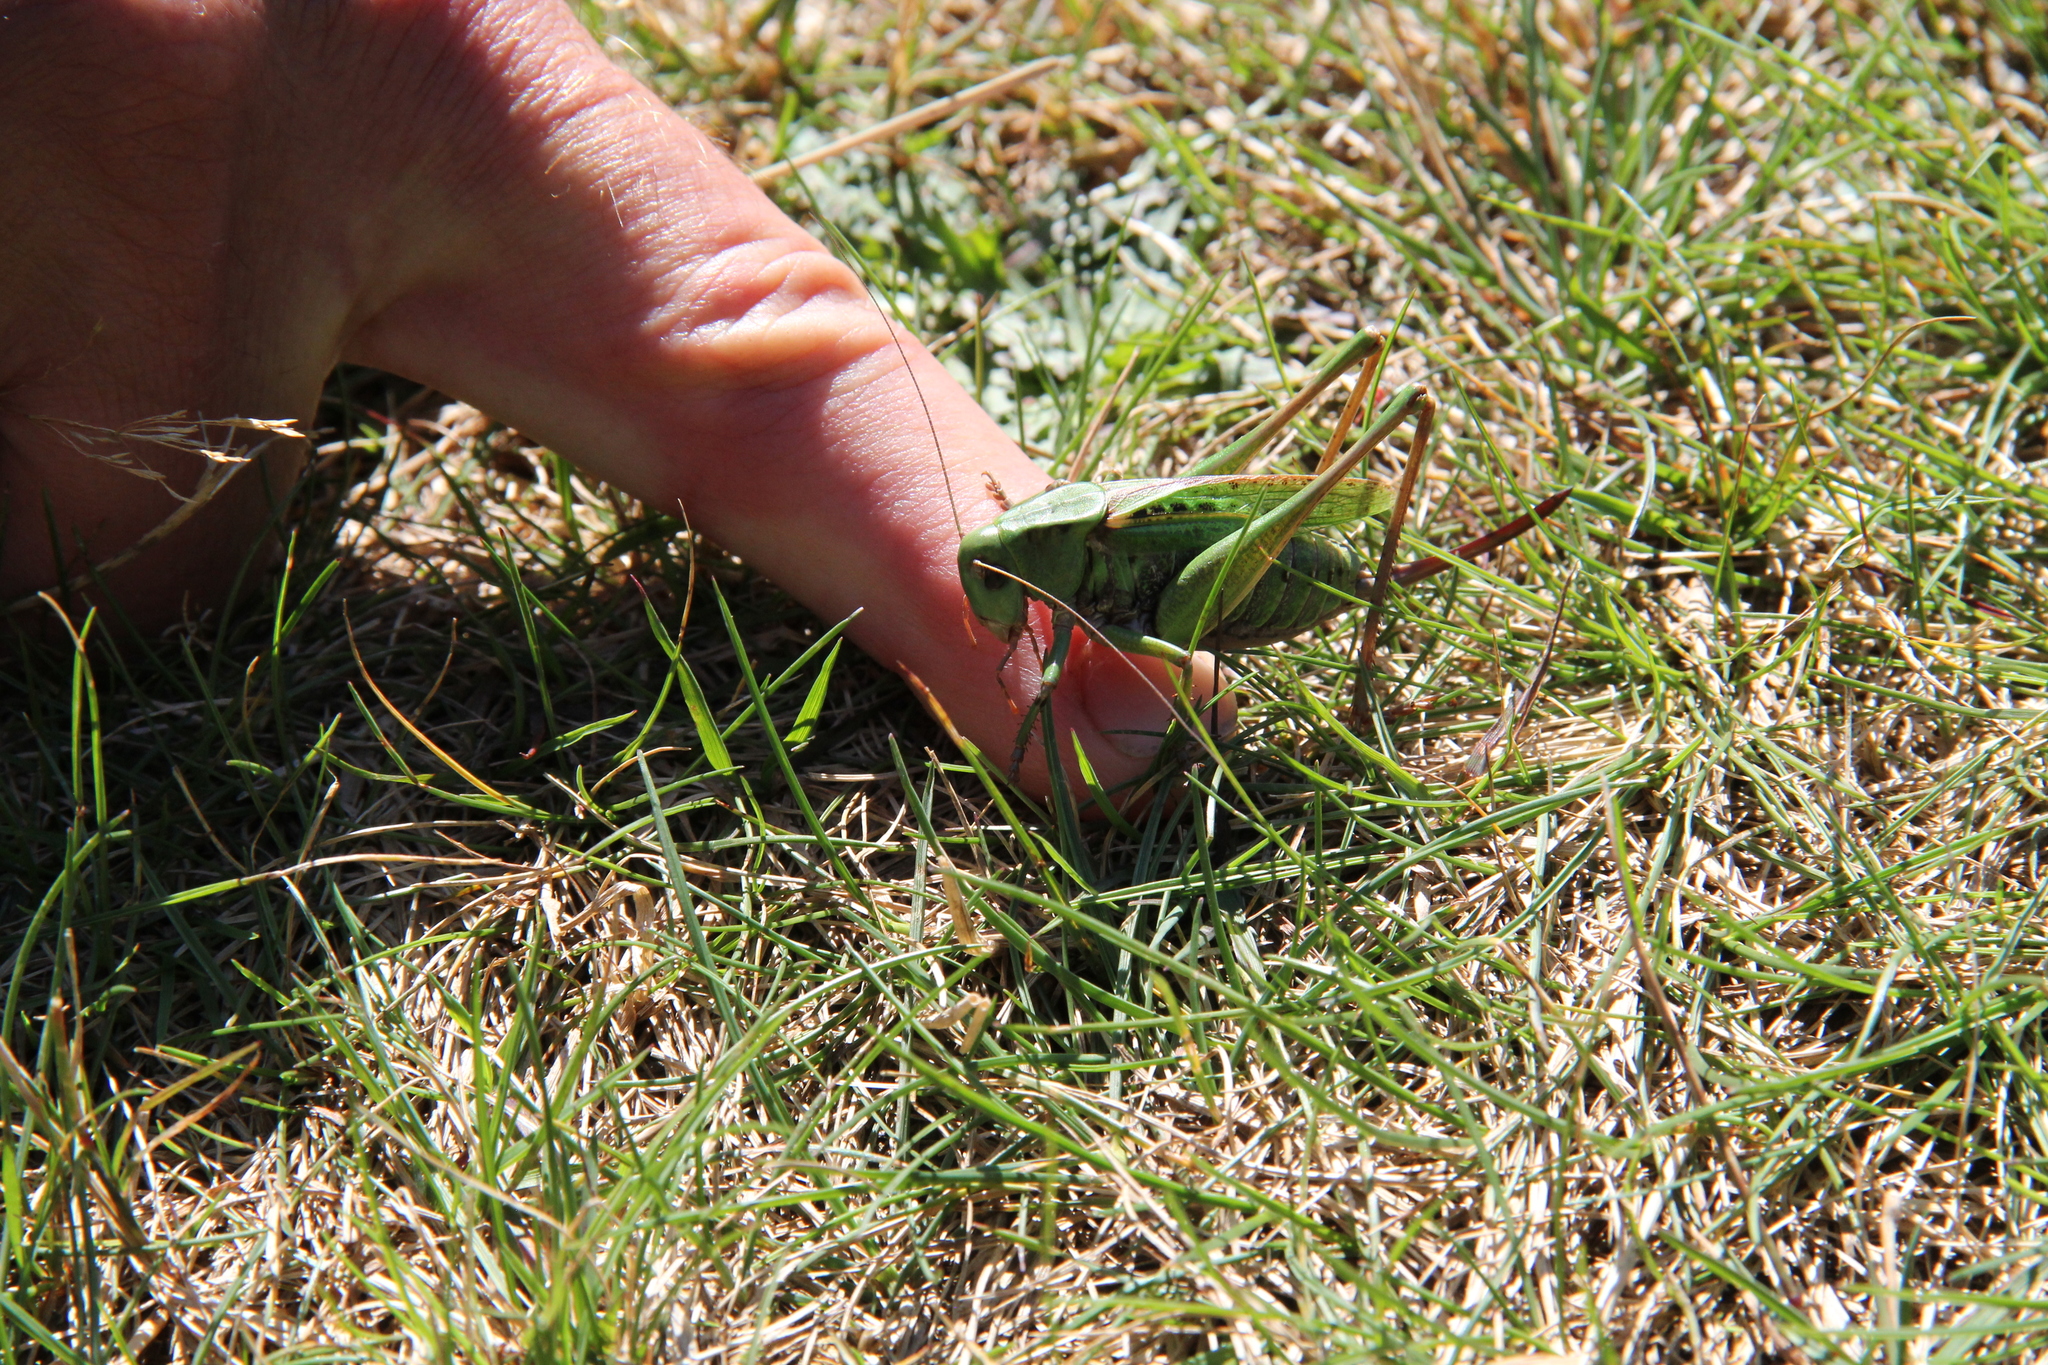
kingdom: Animalia
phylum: Arthropoda
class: Insecta
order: Orthoptera
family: Tettigoniidae
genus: Decticus
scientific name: Decticus verrucivorus
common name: Wart-biter
